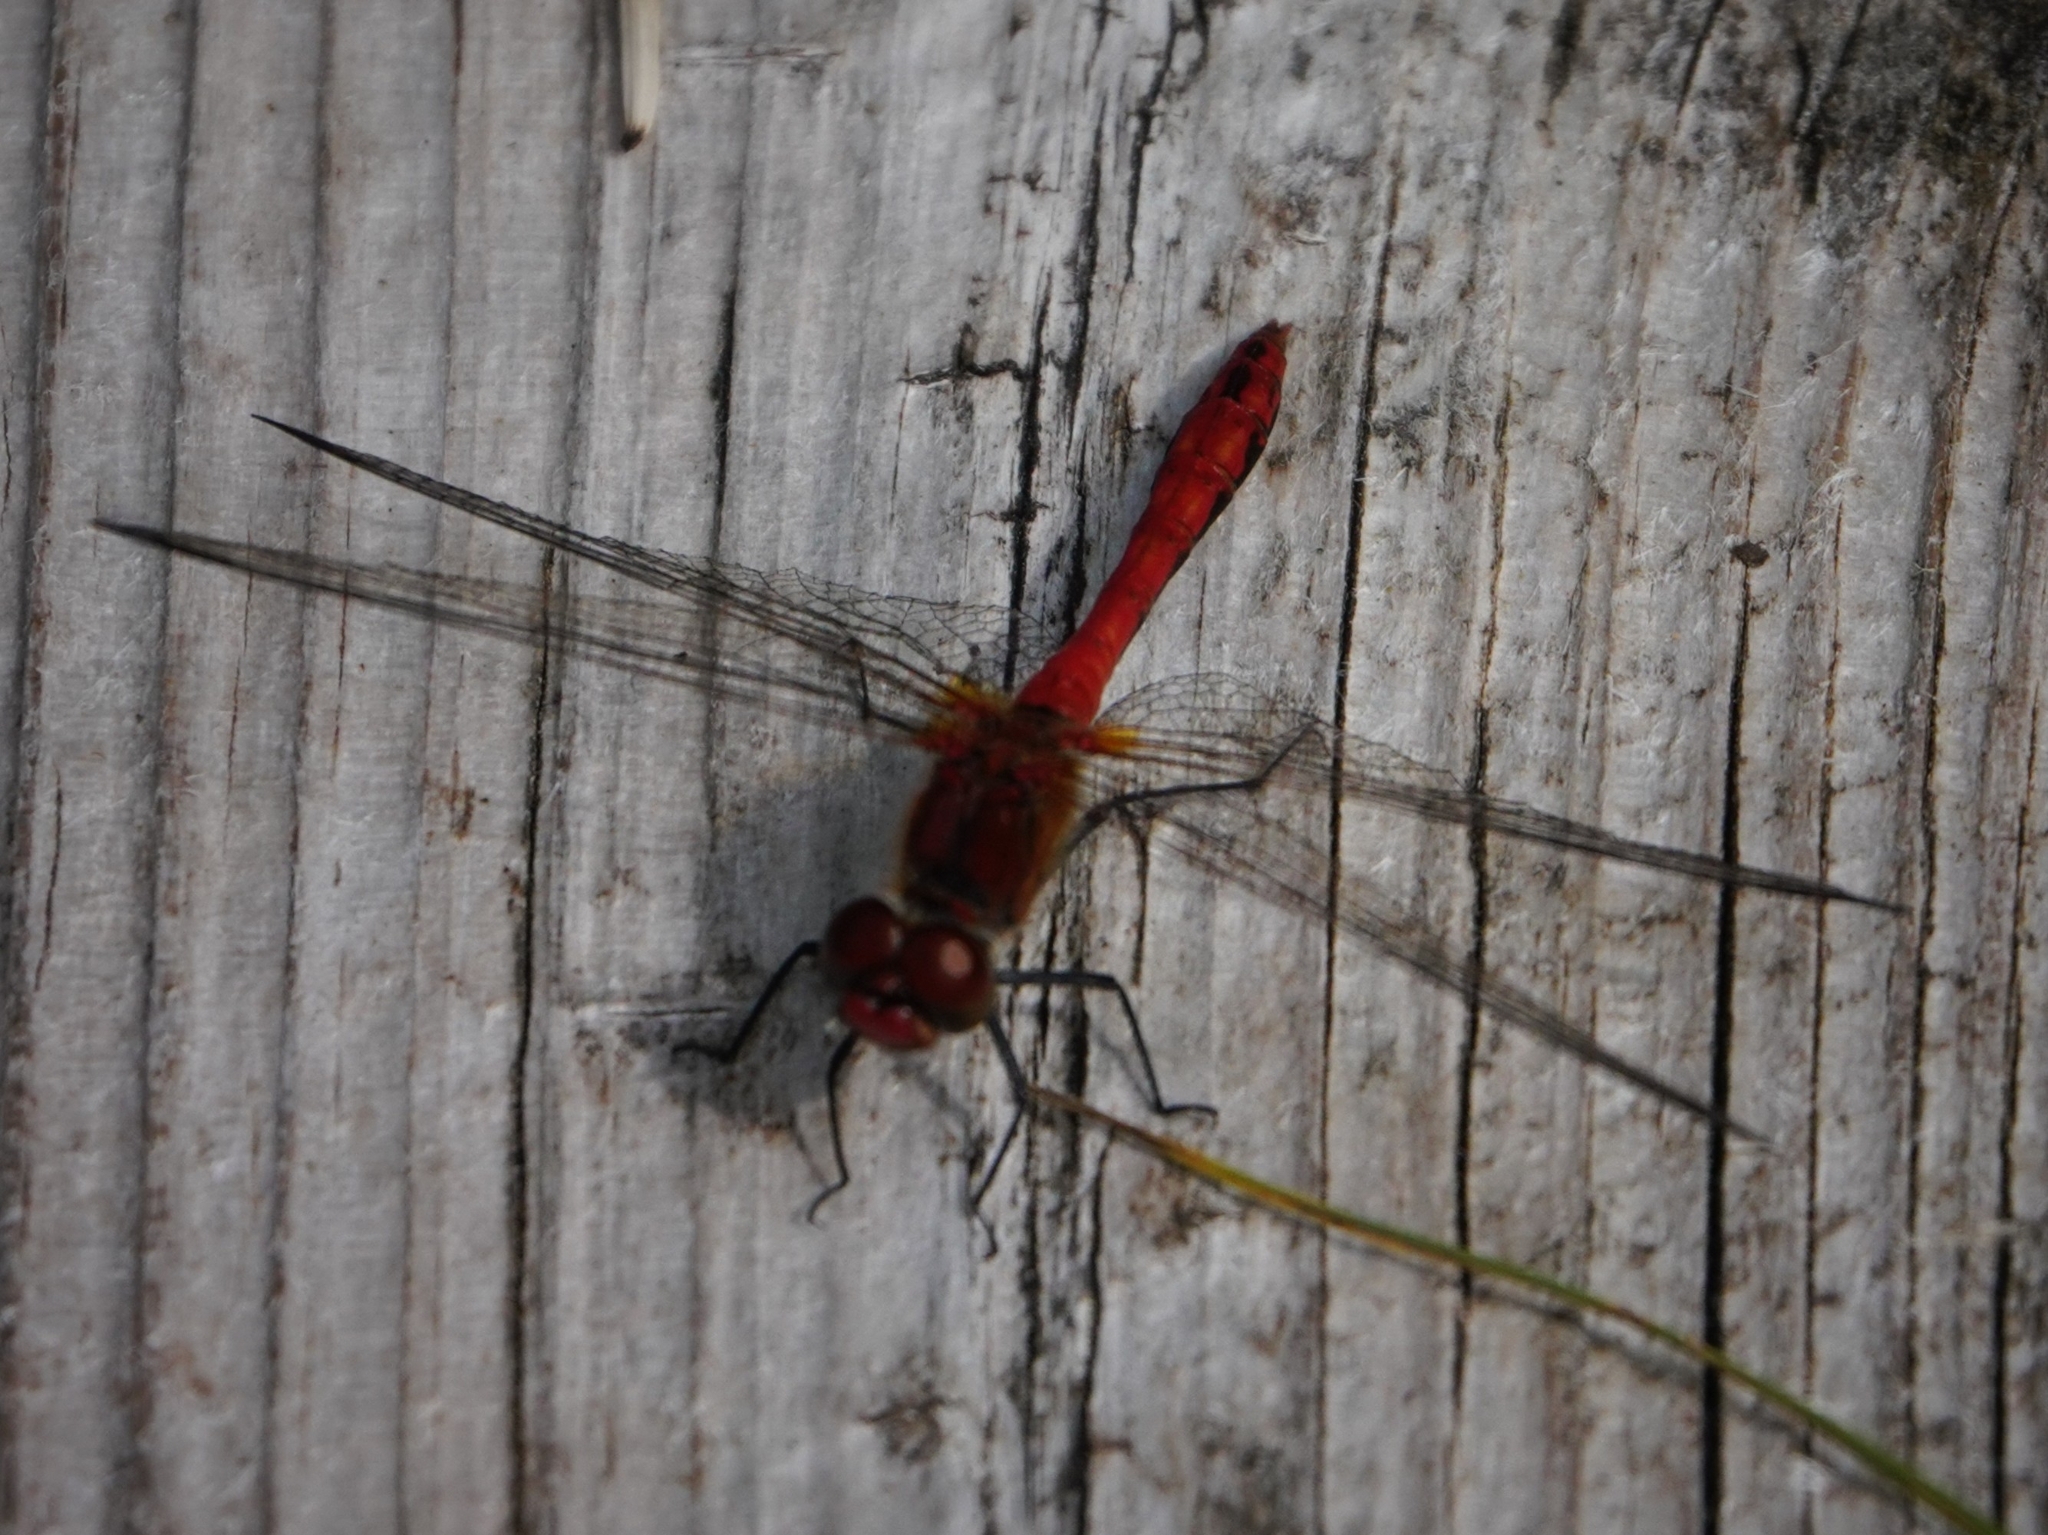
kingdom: Animalia
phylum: Arthropoda
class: Insecta
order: Odonata
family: Libellulidae
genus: Sympetrum
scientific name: Sympetrum sanguineum
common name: Ruddy darter
